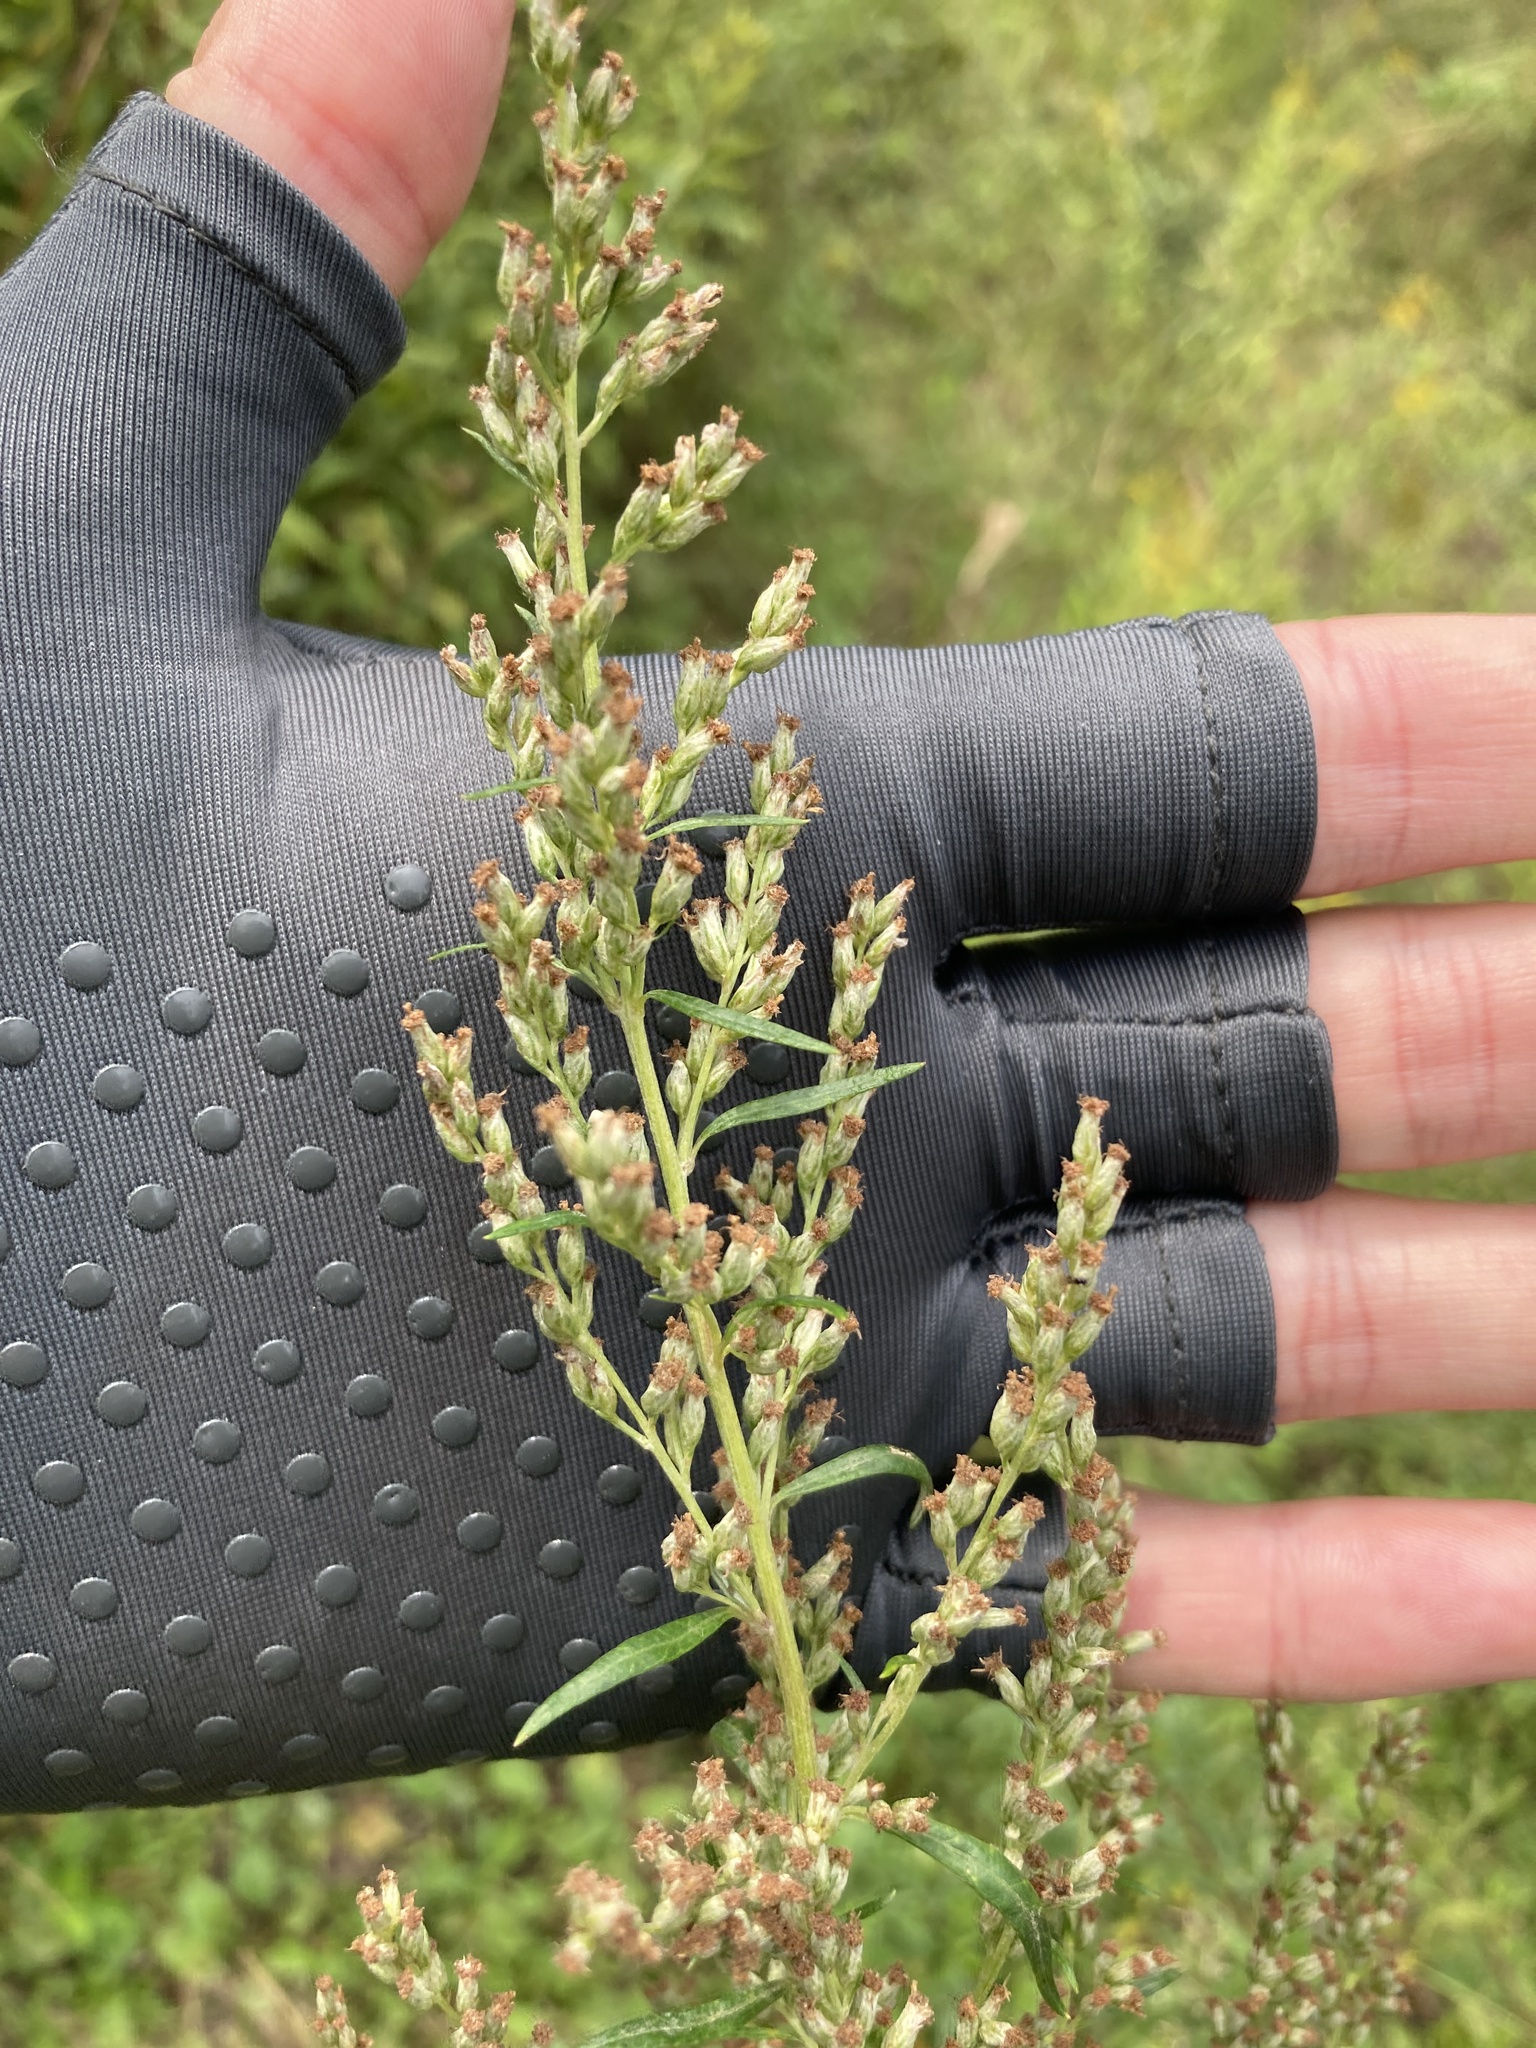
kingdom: Plantae
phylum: Tracheophyta
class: Magnoliopsida
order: Asterales
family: Asteraceae
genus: Artemisia
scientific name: Artemisia vulgaris
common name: Mugwort
